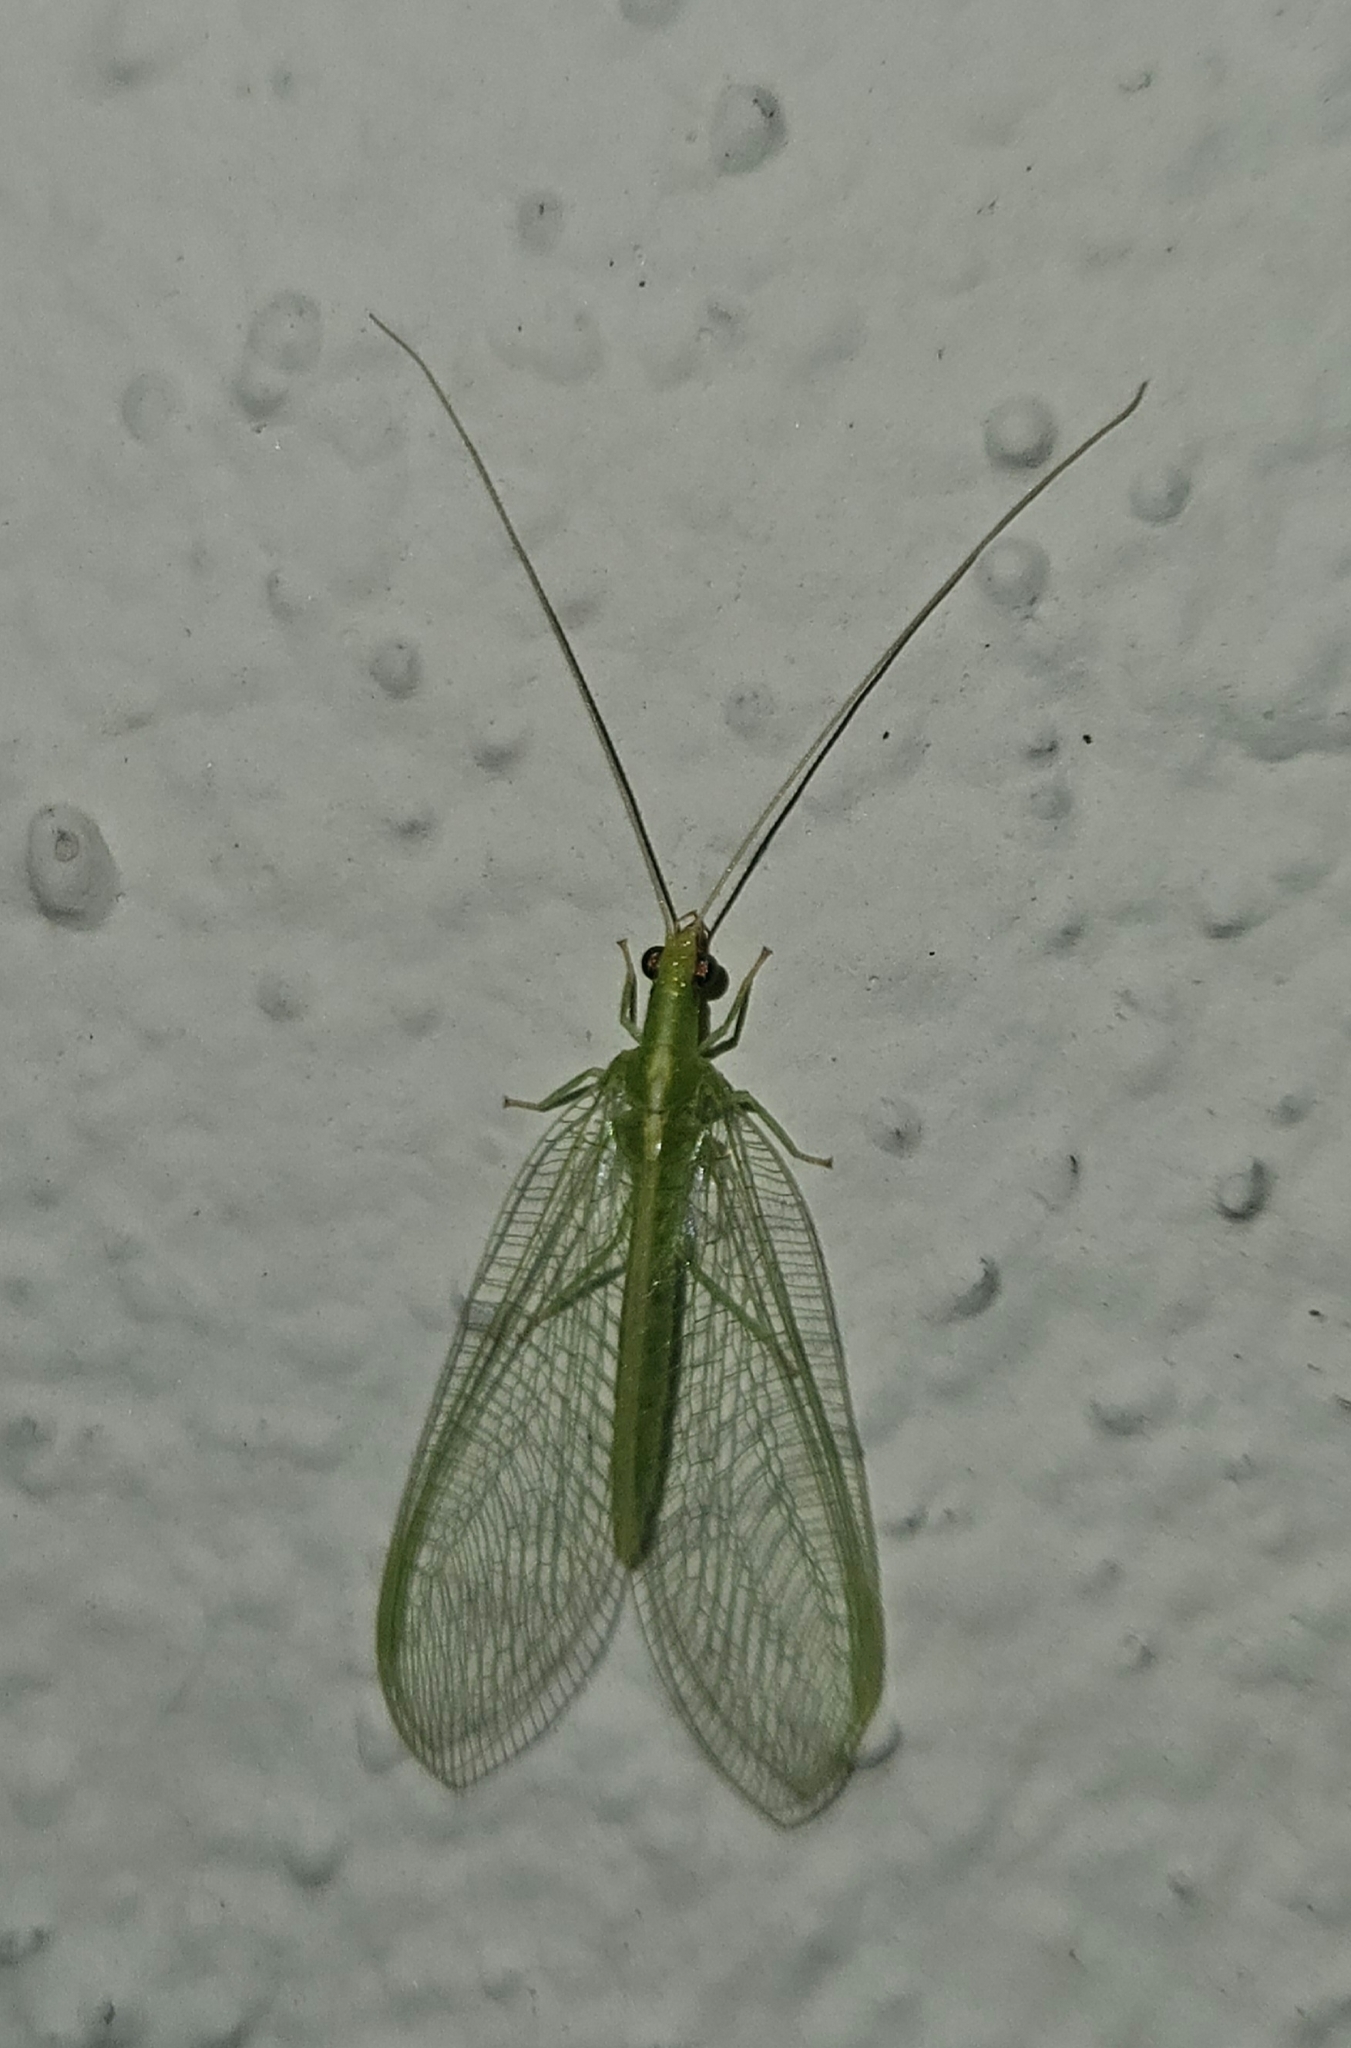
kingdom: Animalia
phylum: Arthropoda
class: Insecta
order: Neuroptera
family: Chrysopidae
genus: Chrysoperla
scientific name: Chrysoperla rufilabris
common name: Red-lipped green lacewing
